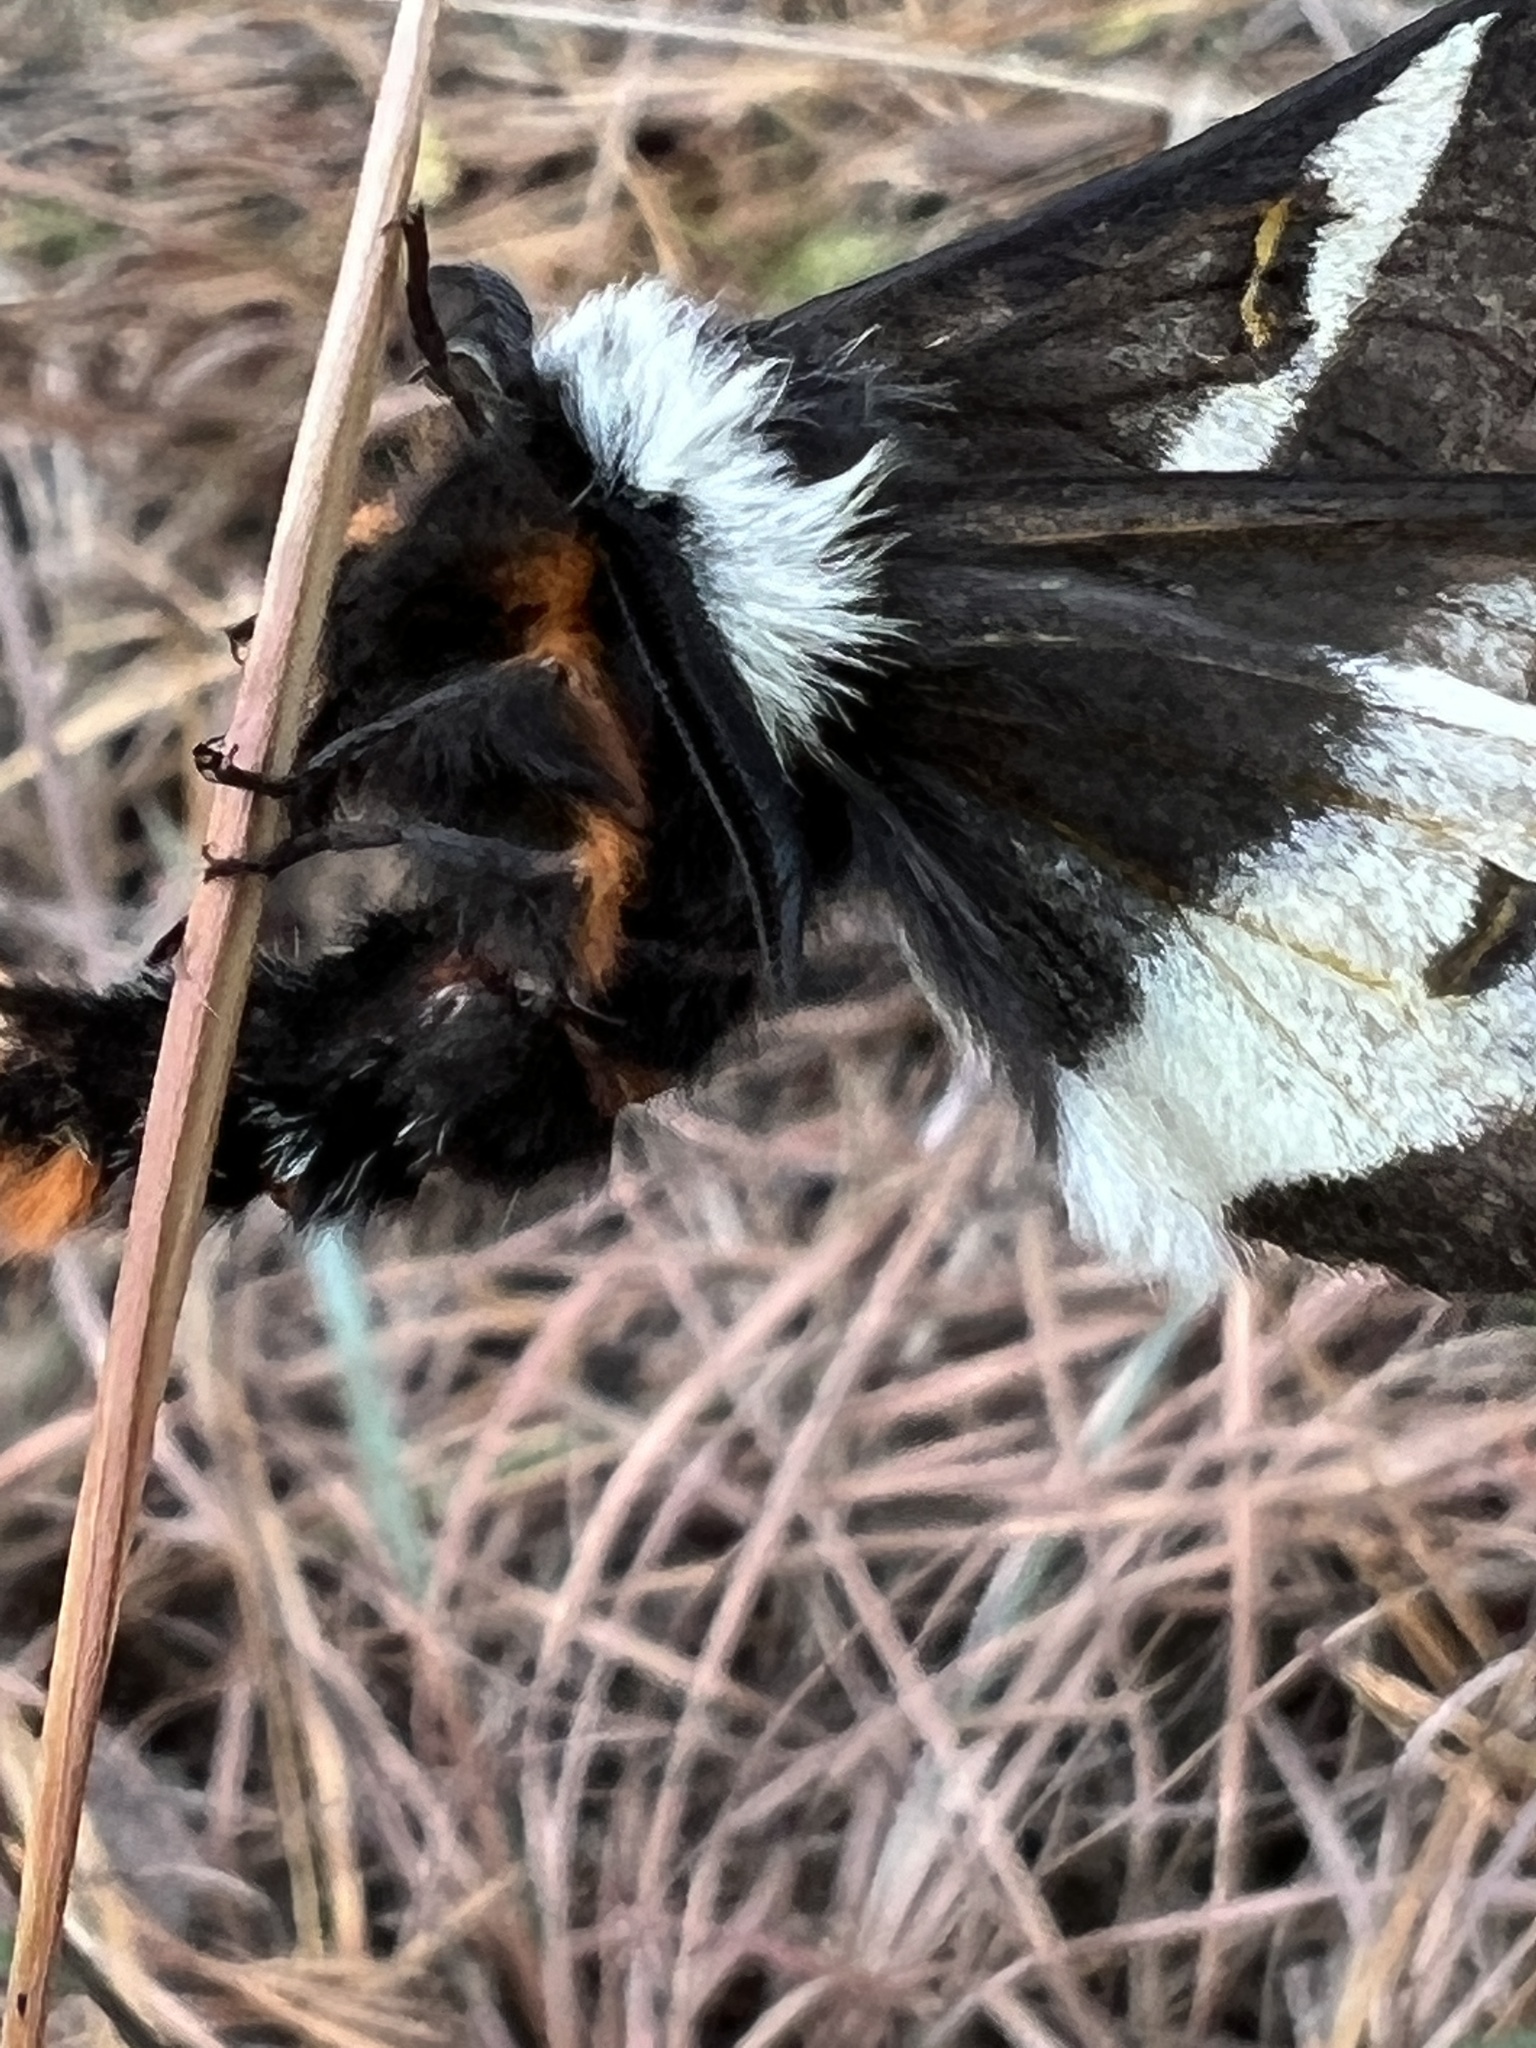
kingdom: Animalia
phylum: Arthropoda
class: Insecta
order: Lepidoptera
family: Saturniidae
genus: Hemileuca
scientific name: Hemileuca maia
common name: Eastern buckmoth
